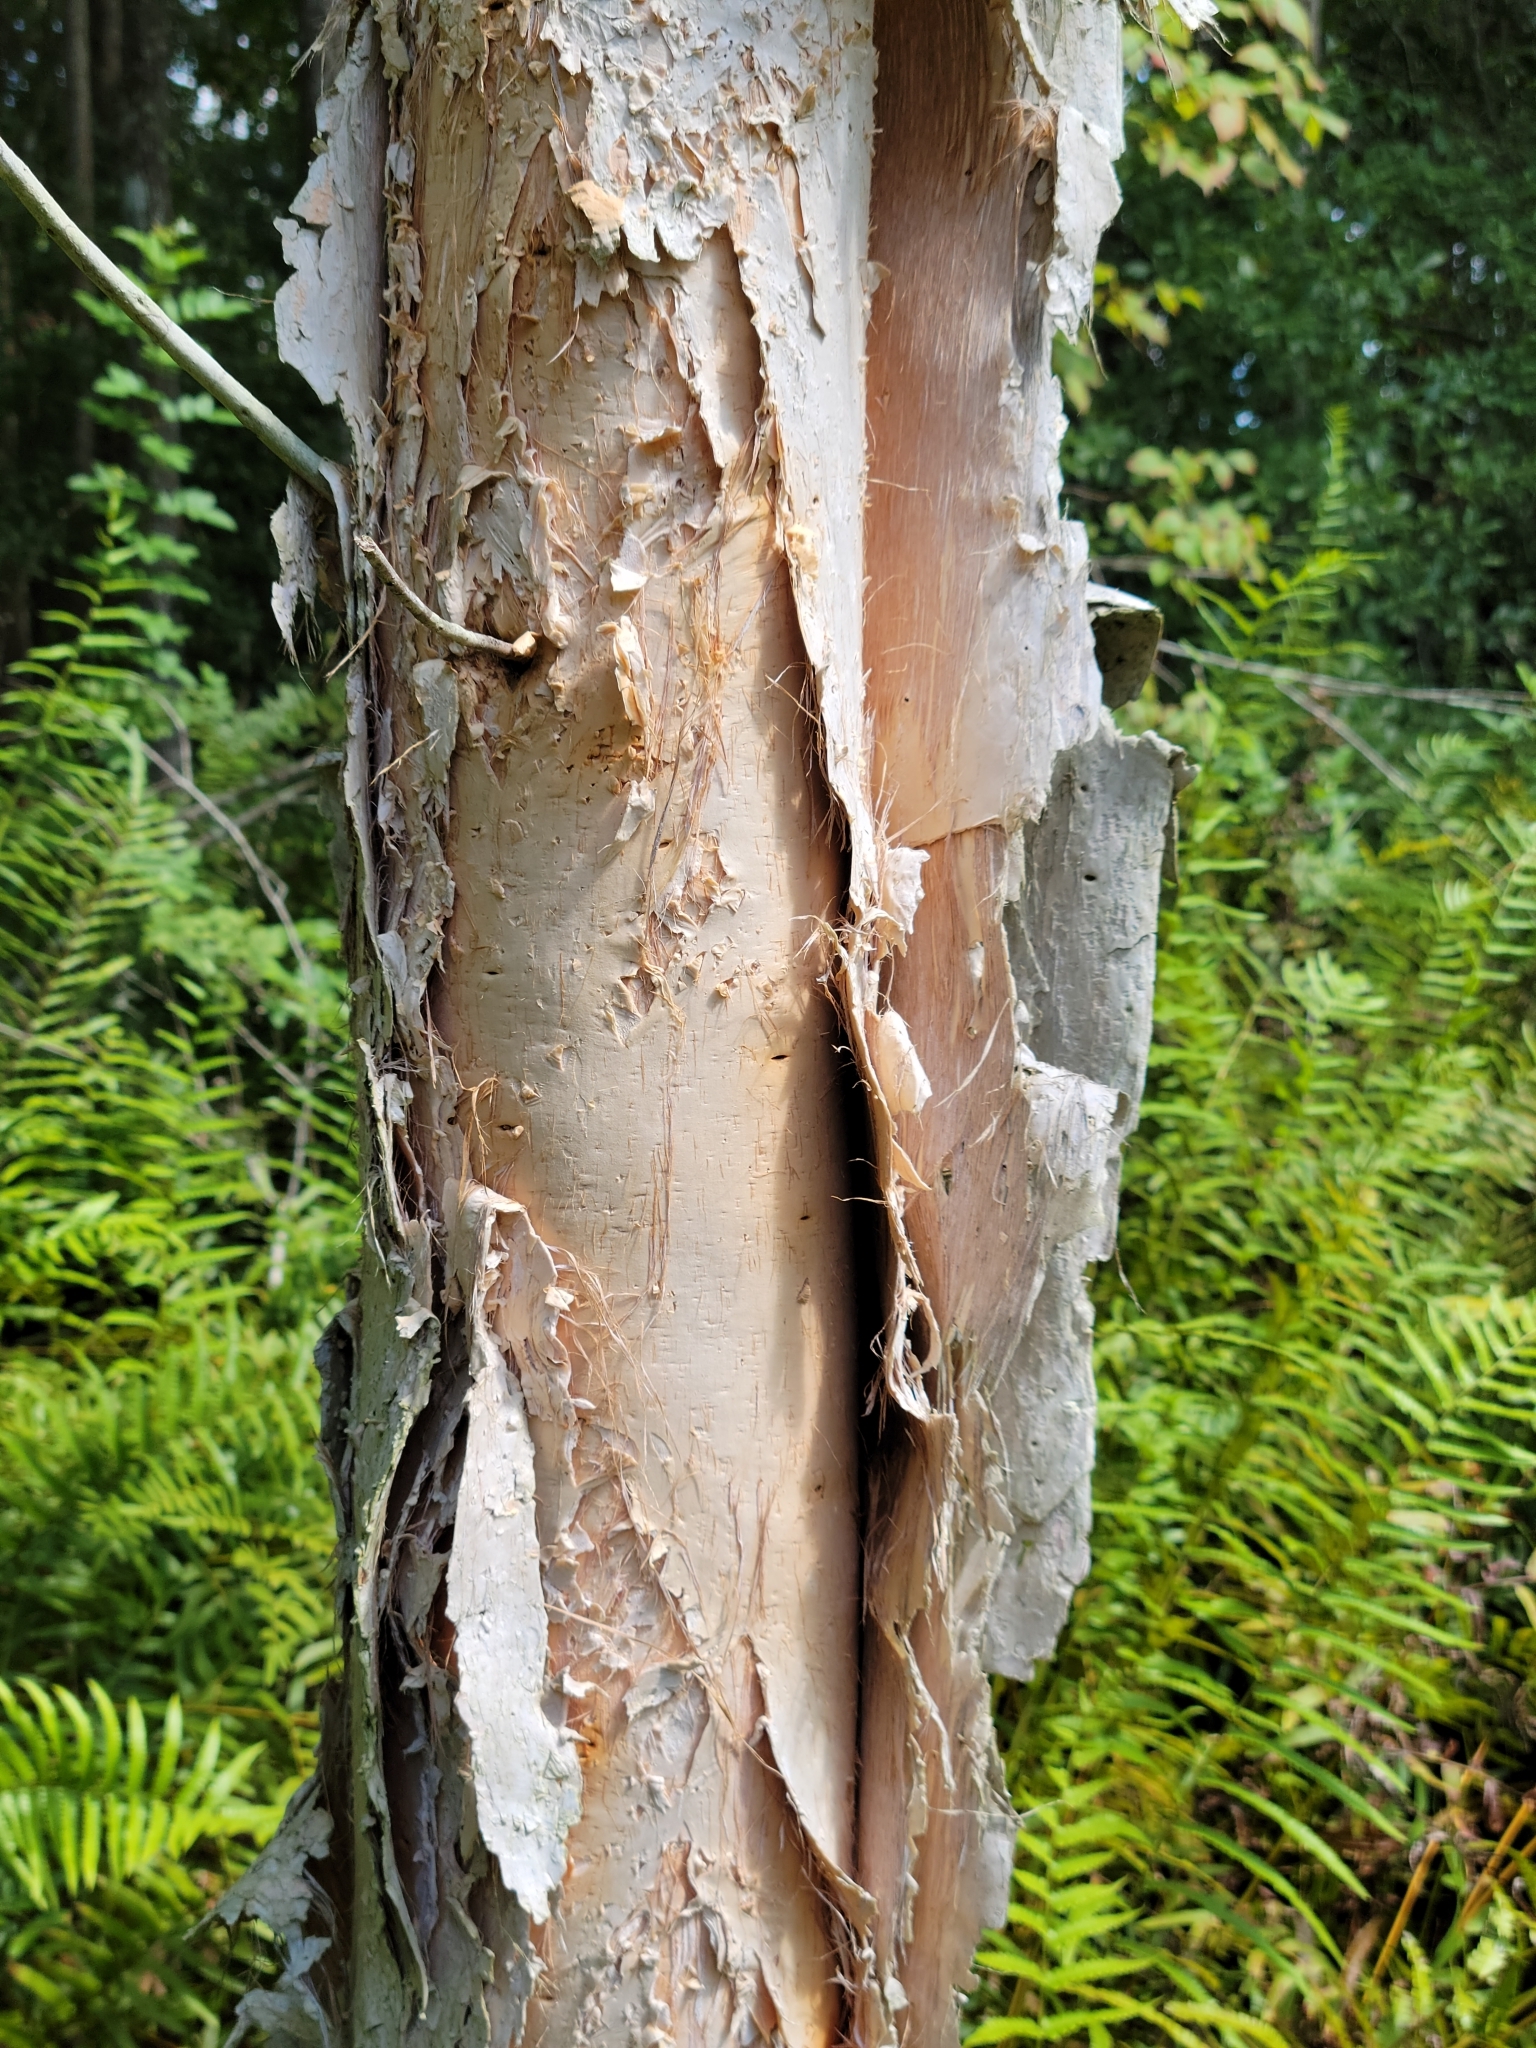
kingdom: Plantae
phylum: Tracheophyta
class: Magnoliopsida
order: Myrtales
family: Myrtaceae
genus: Melaleuca
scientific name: Melaleuca quinquenervia
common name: Punktree
